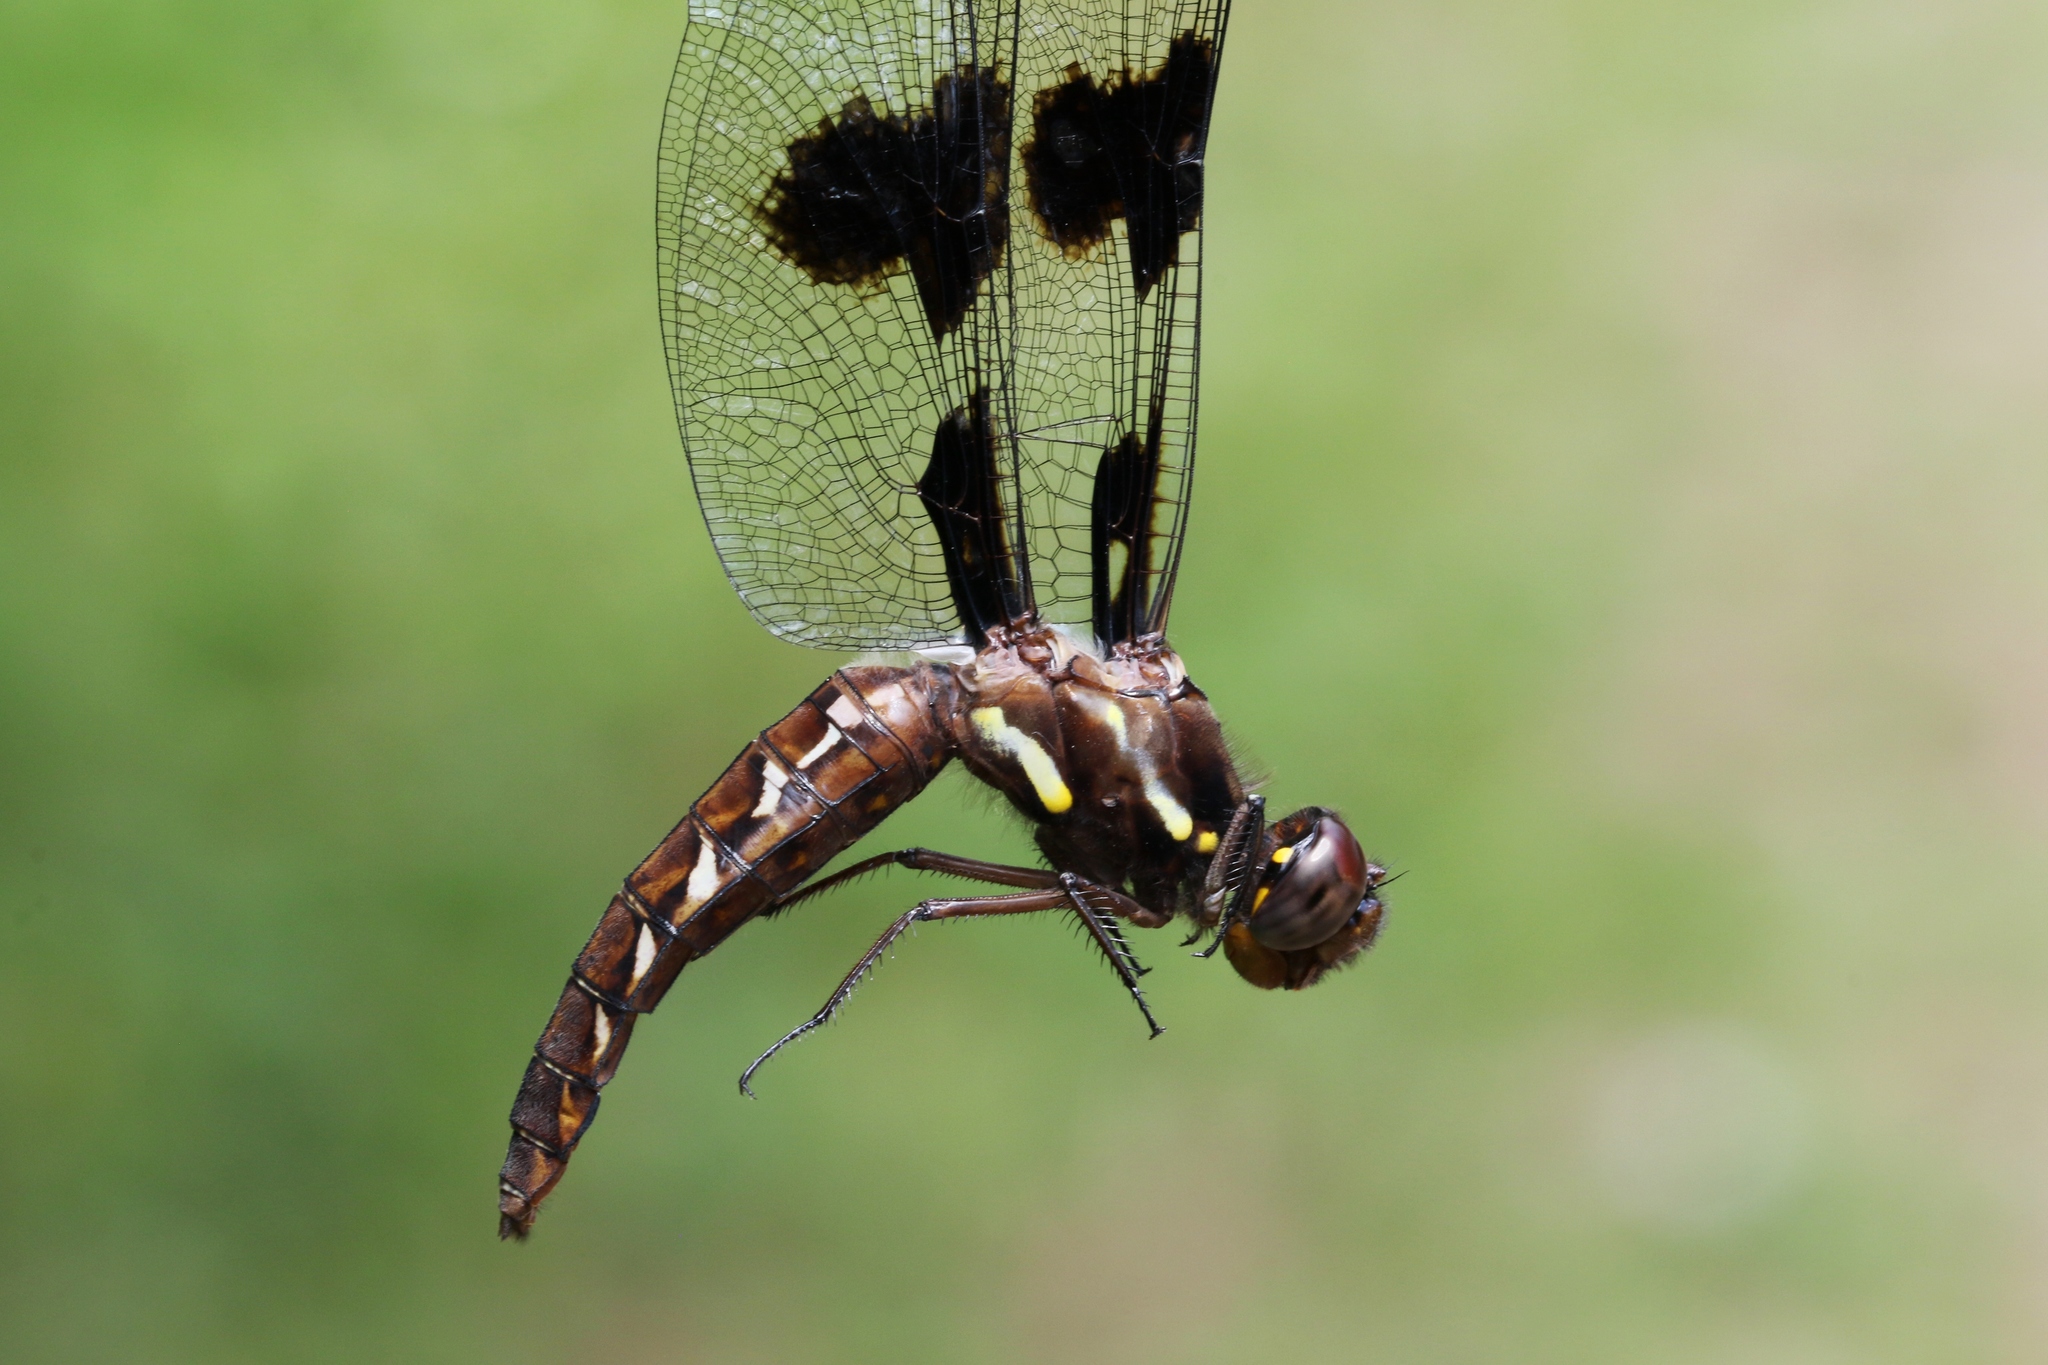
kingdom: Animalia
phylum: Arthropoda
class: Insecta
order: Odonata
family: Libellulidae
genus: Plathemis
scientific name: Plathemis lydia
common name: Common whitetail
